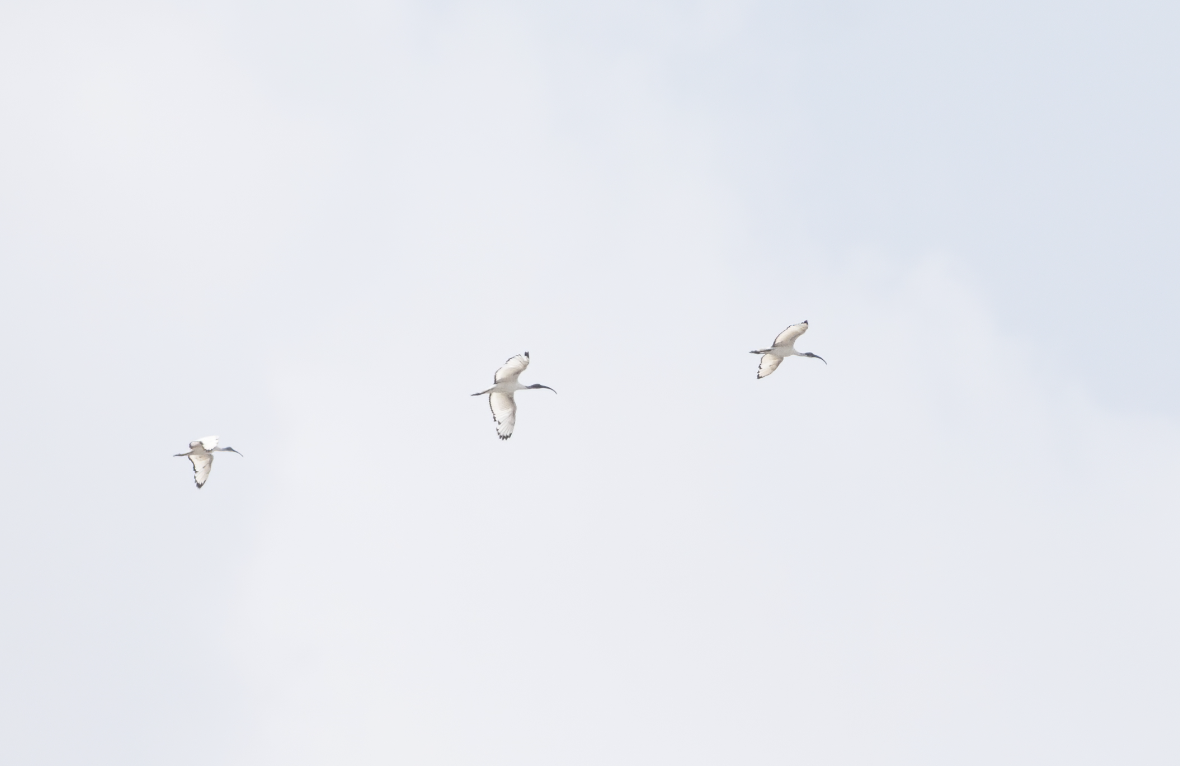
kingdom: Animalia
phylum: Chordata
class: Aves
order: Pelecaniformes
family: Threskiornithidae
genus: Threskiornis
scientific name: Threskiornis aethiopicus
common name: Sacred ibis
